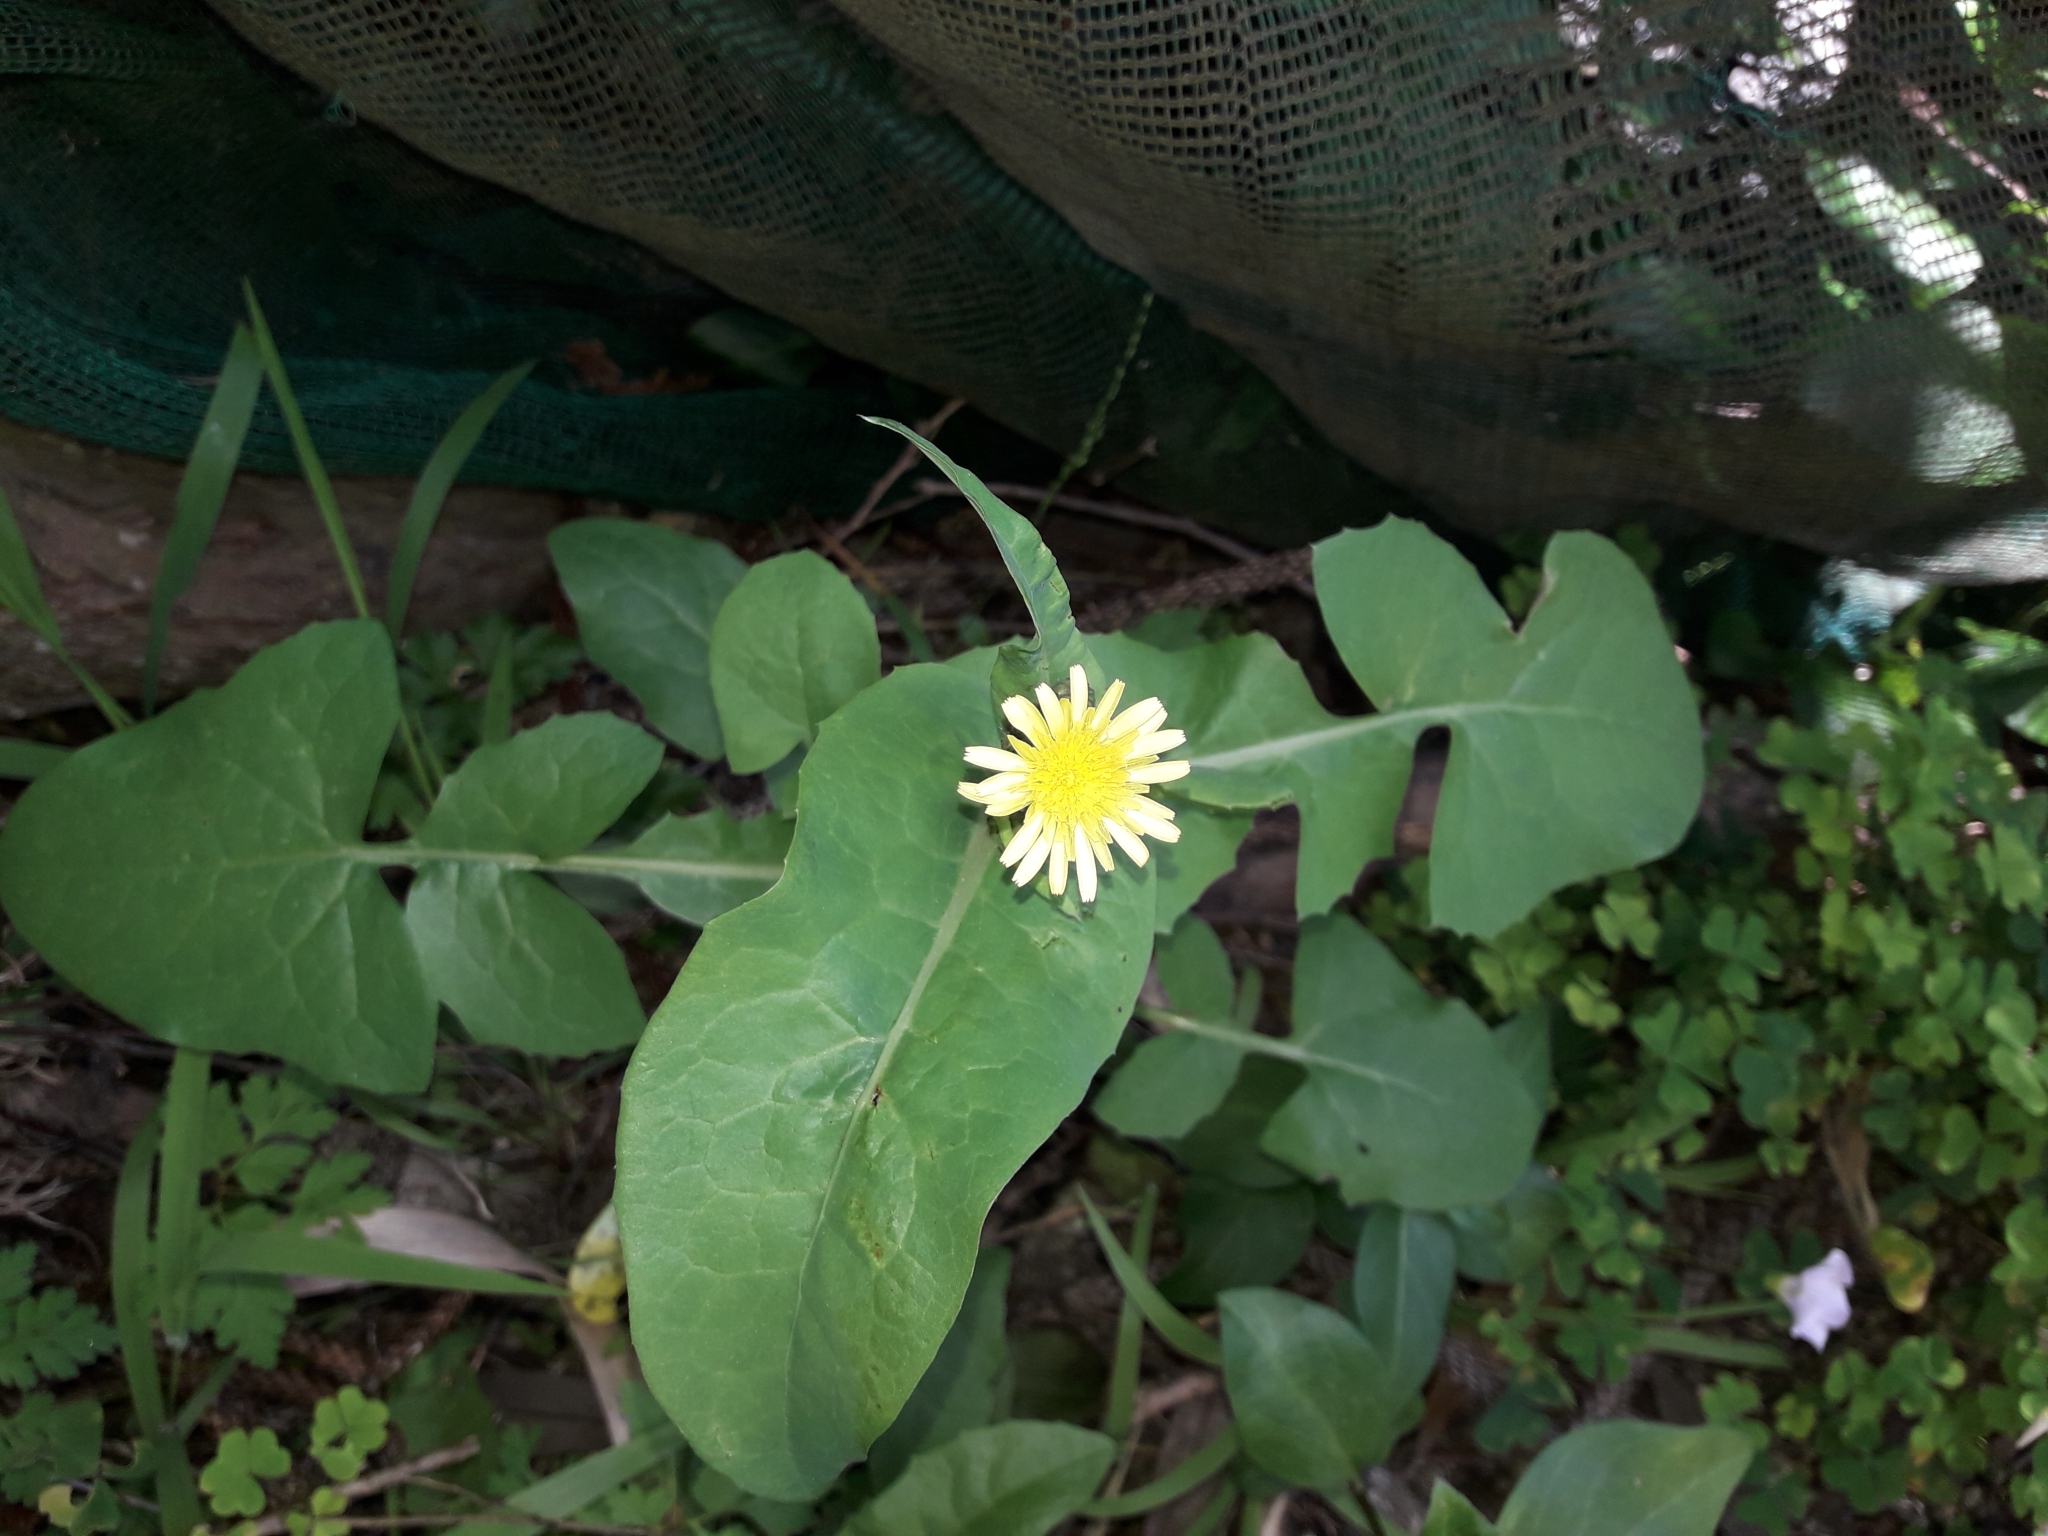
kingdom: Plantae
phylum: Tracheophyta
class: Magnoliopsida
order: Asterales
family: Asteraceae
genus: Sonchus
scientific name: Sonchus oleraceus
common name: Common sowthistle
